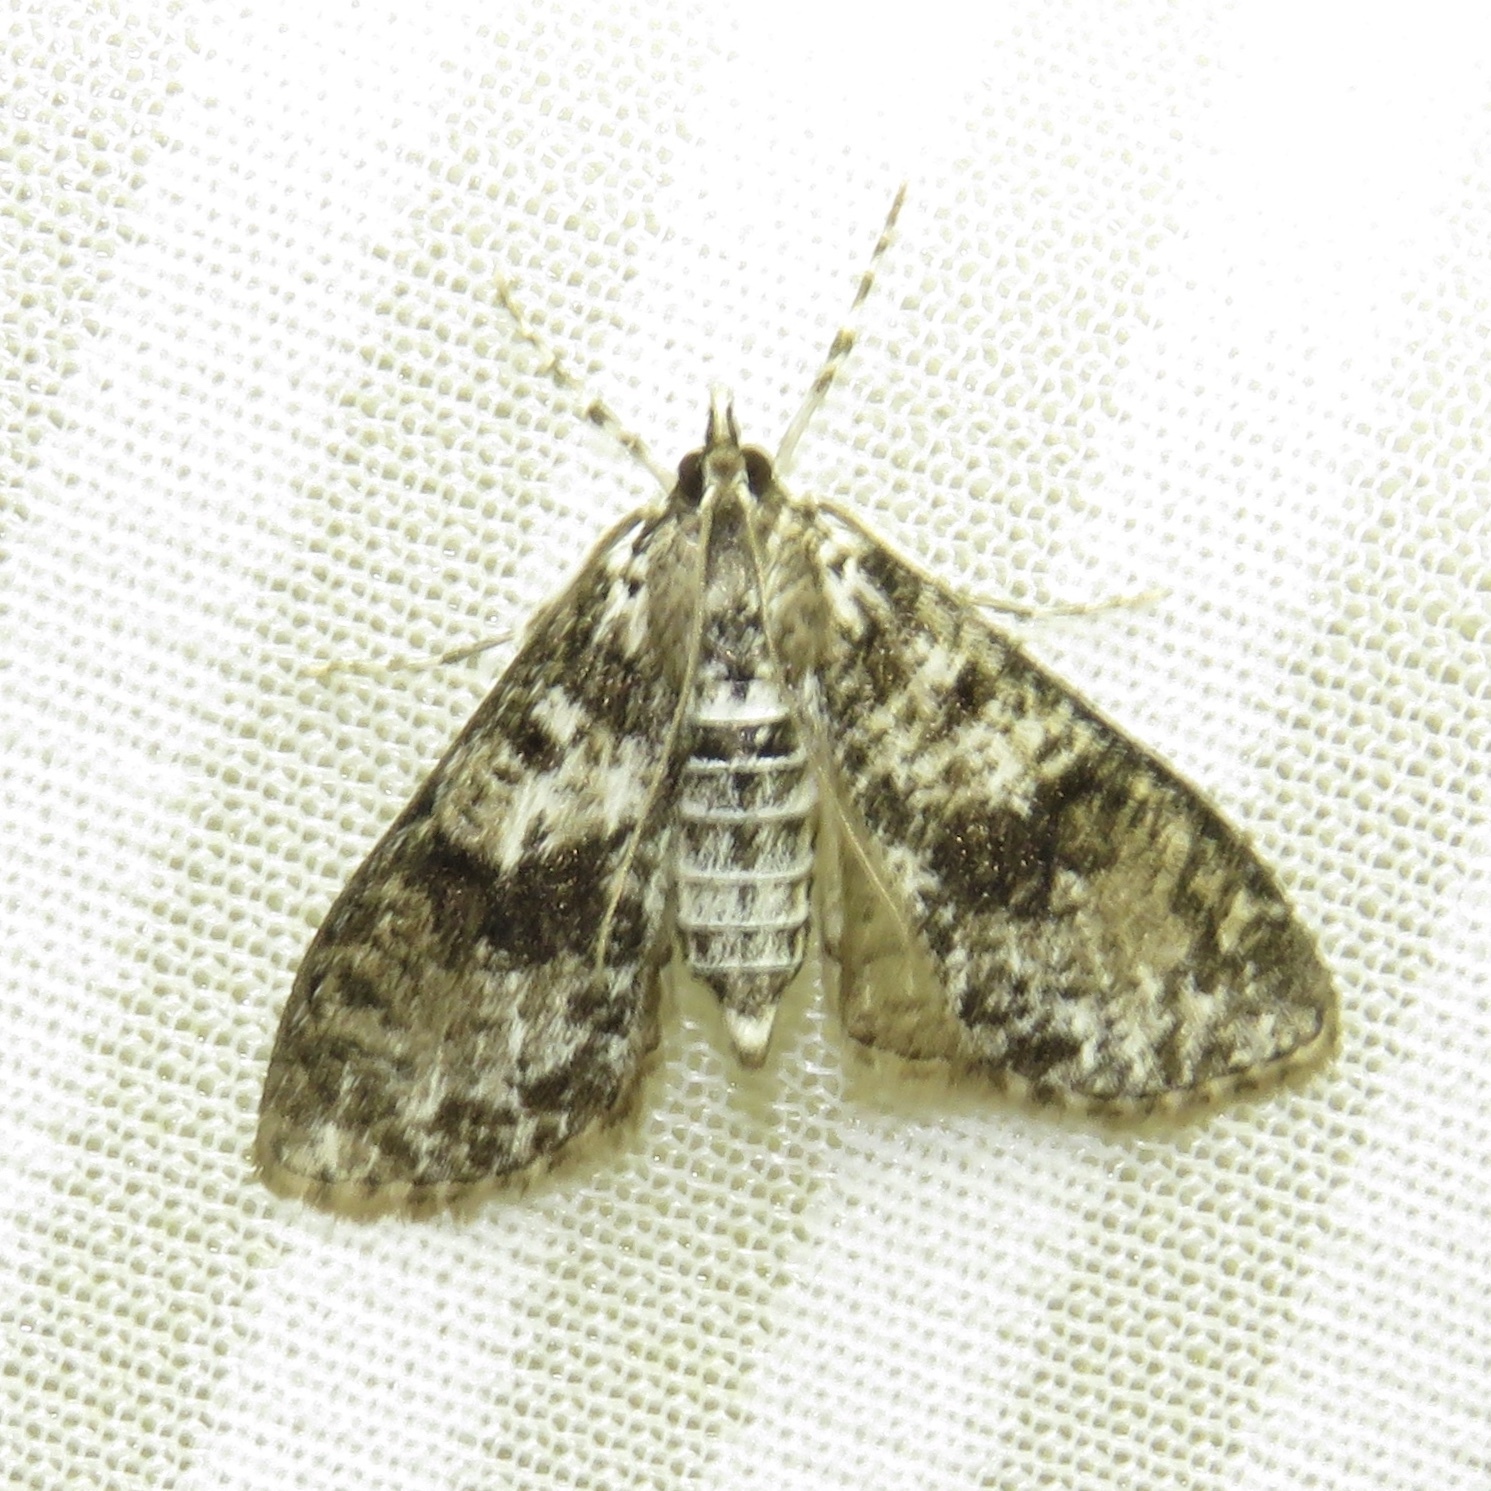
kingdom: Animalia
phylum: Arthropoda
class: Insecta
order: Lepidoptera
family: Crambidae
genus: Palpita
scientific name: Palpita magniferalis
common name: Splendid palpita moth
